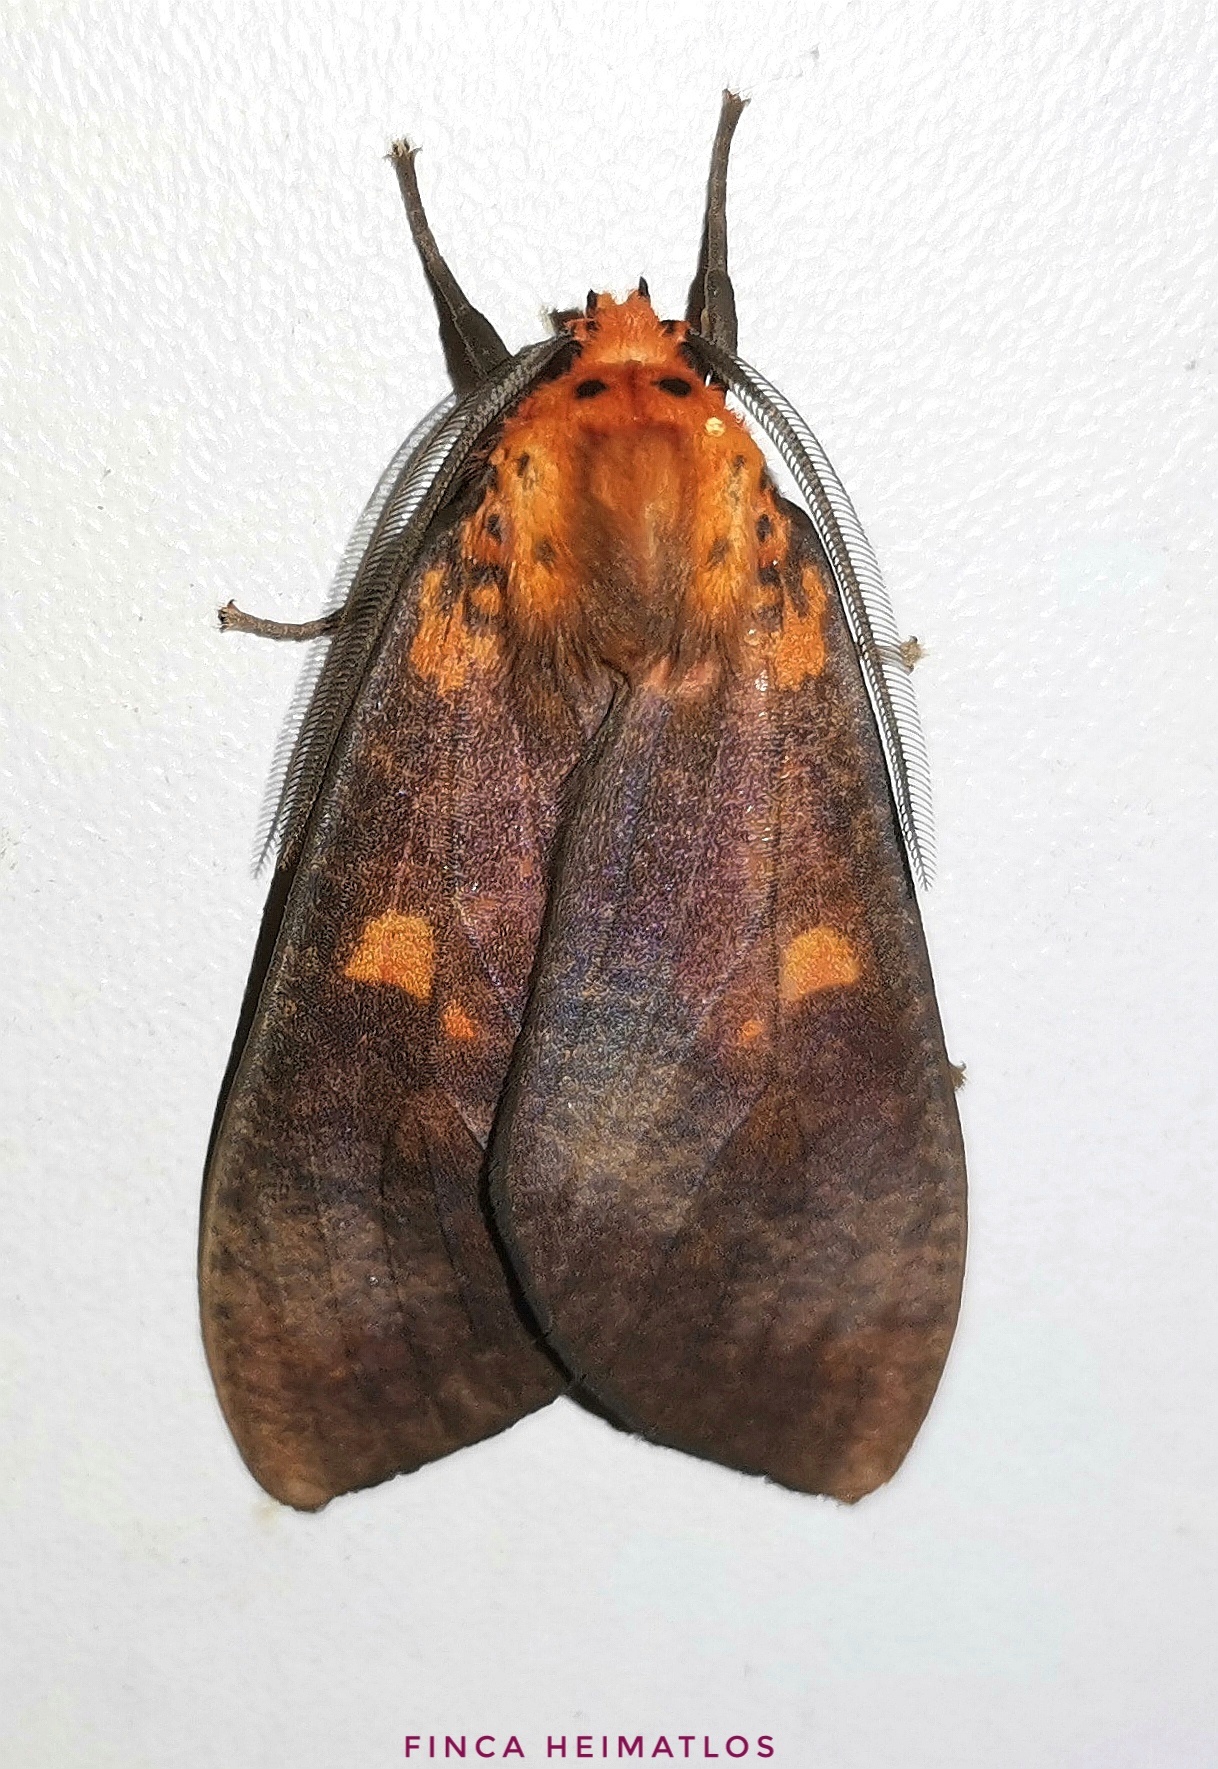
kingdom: Animalia
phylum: Arthropoda
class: Insecta
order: Lepidoptera
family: Erebidae
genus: Ammalo
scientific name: Ammalo helops
